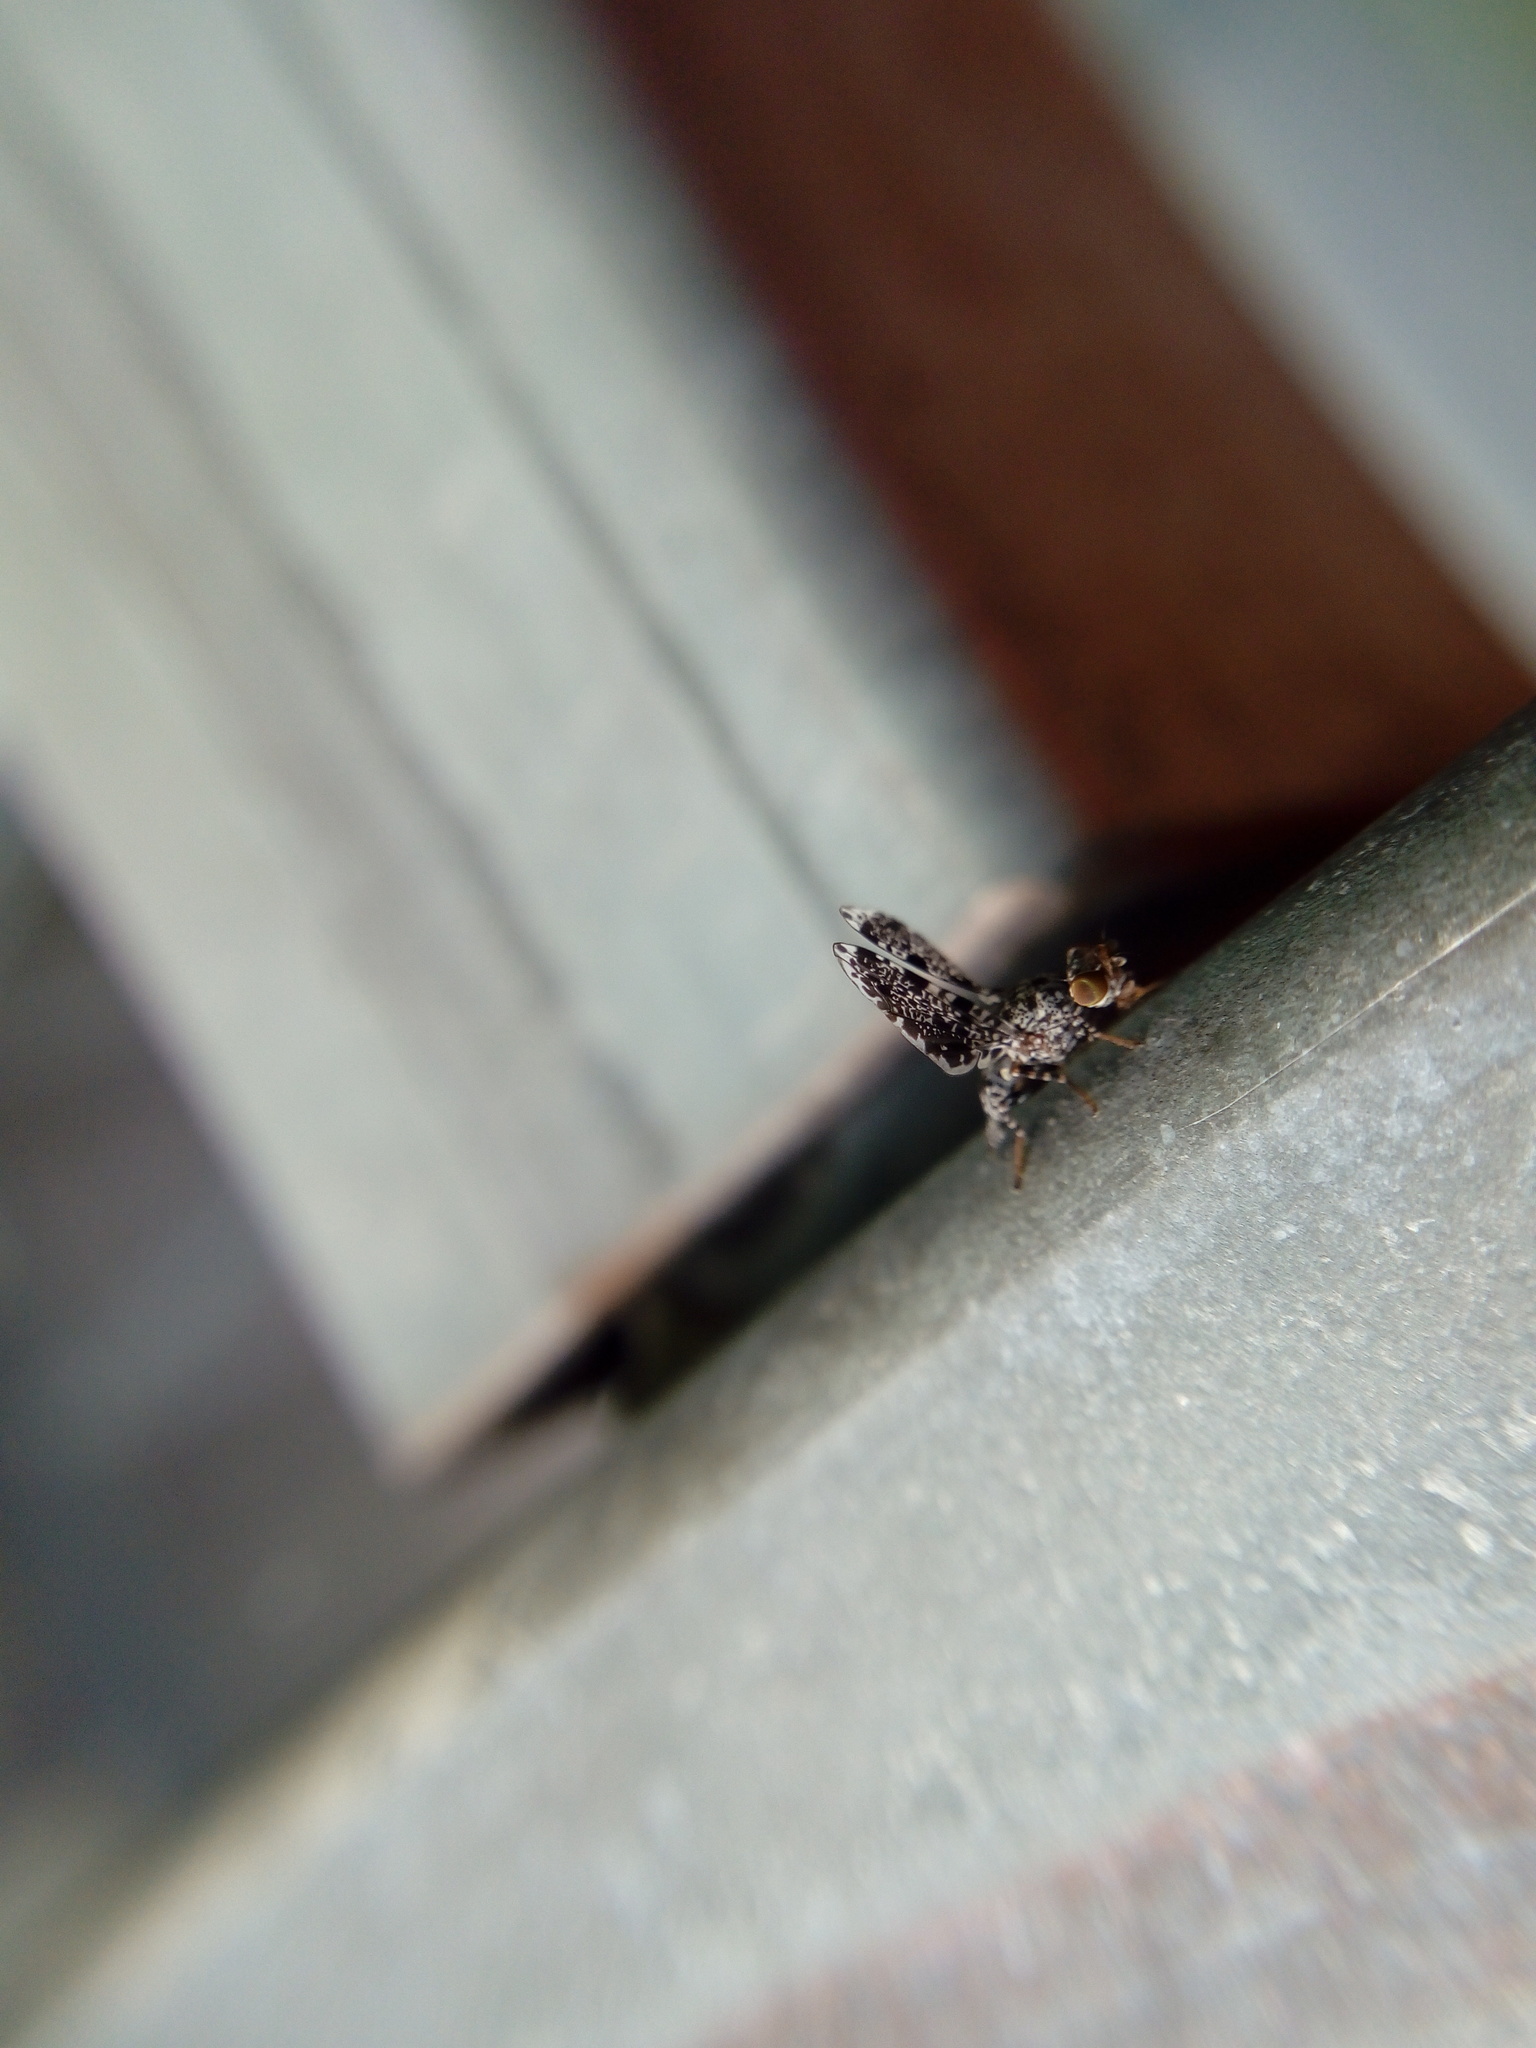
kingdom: Animalia
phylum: Arthropoda
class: Insecta
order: Diptera
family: Ulidiidae
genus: Callopistromyia
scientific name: Callopistromyia annulipes
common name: Peacock fly
